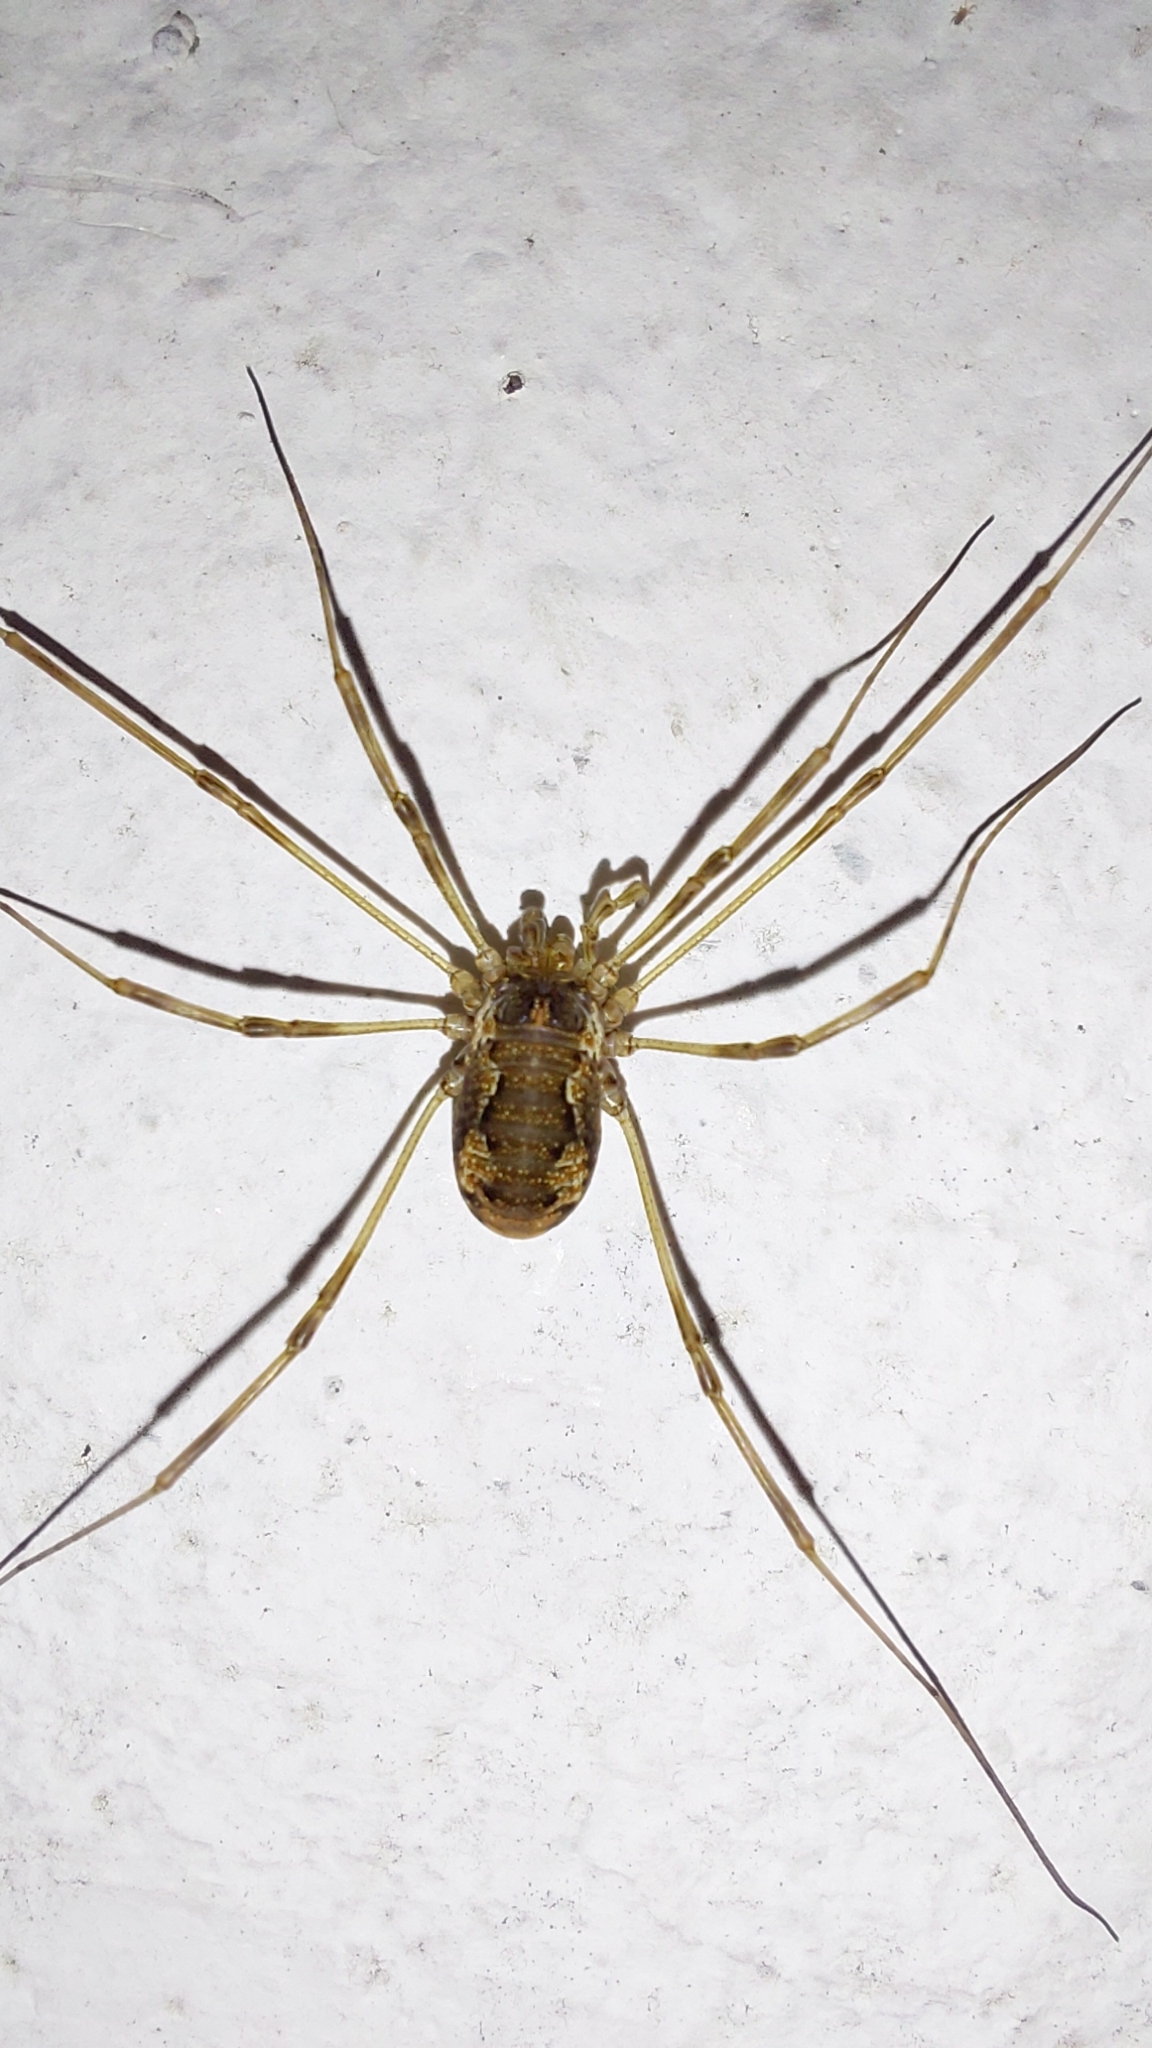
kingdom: Animalia
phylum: Arthropoda
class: Arachnida
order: Opiliones
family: Phalangiidae
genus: Dasylobus
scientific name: Dasylobus graniferus
